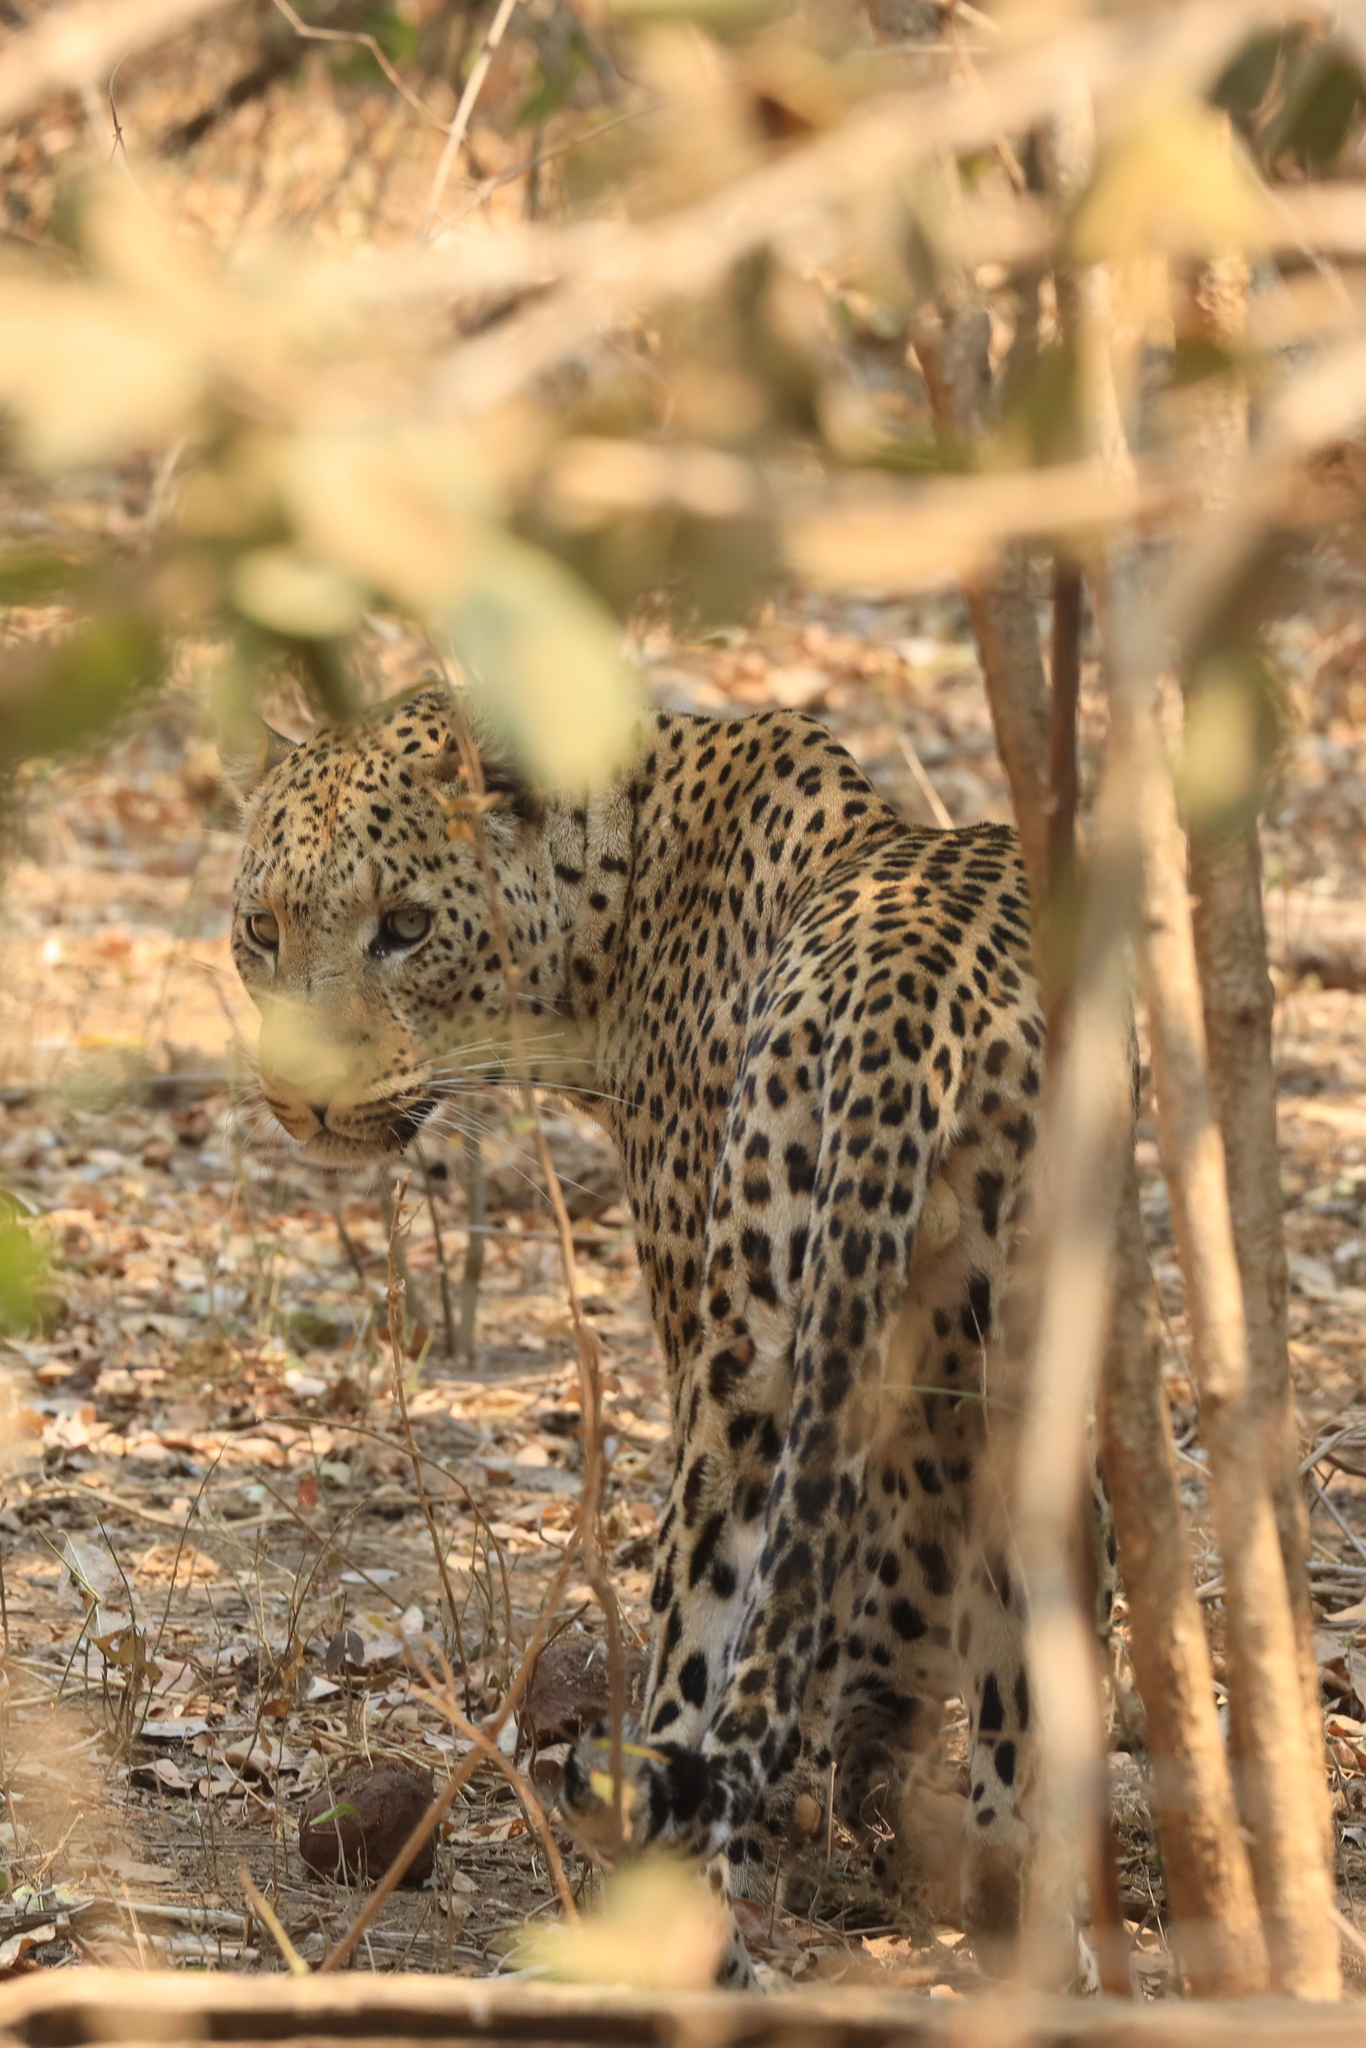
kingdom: Animalia
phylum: Chordata
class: Mammalia
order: Carnivora
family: Felidae
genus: Panthera
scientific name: Panthera pardus
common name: Leopard
